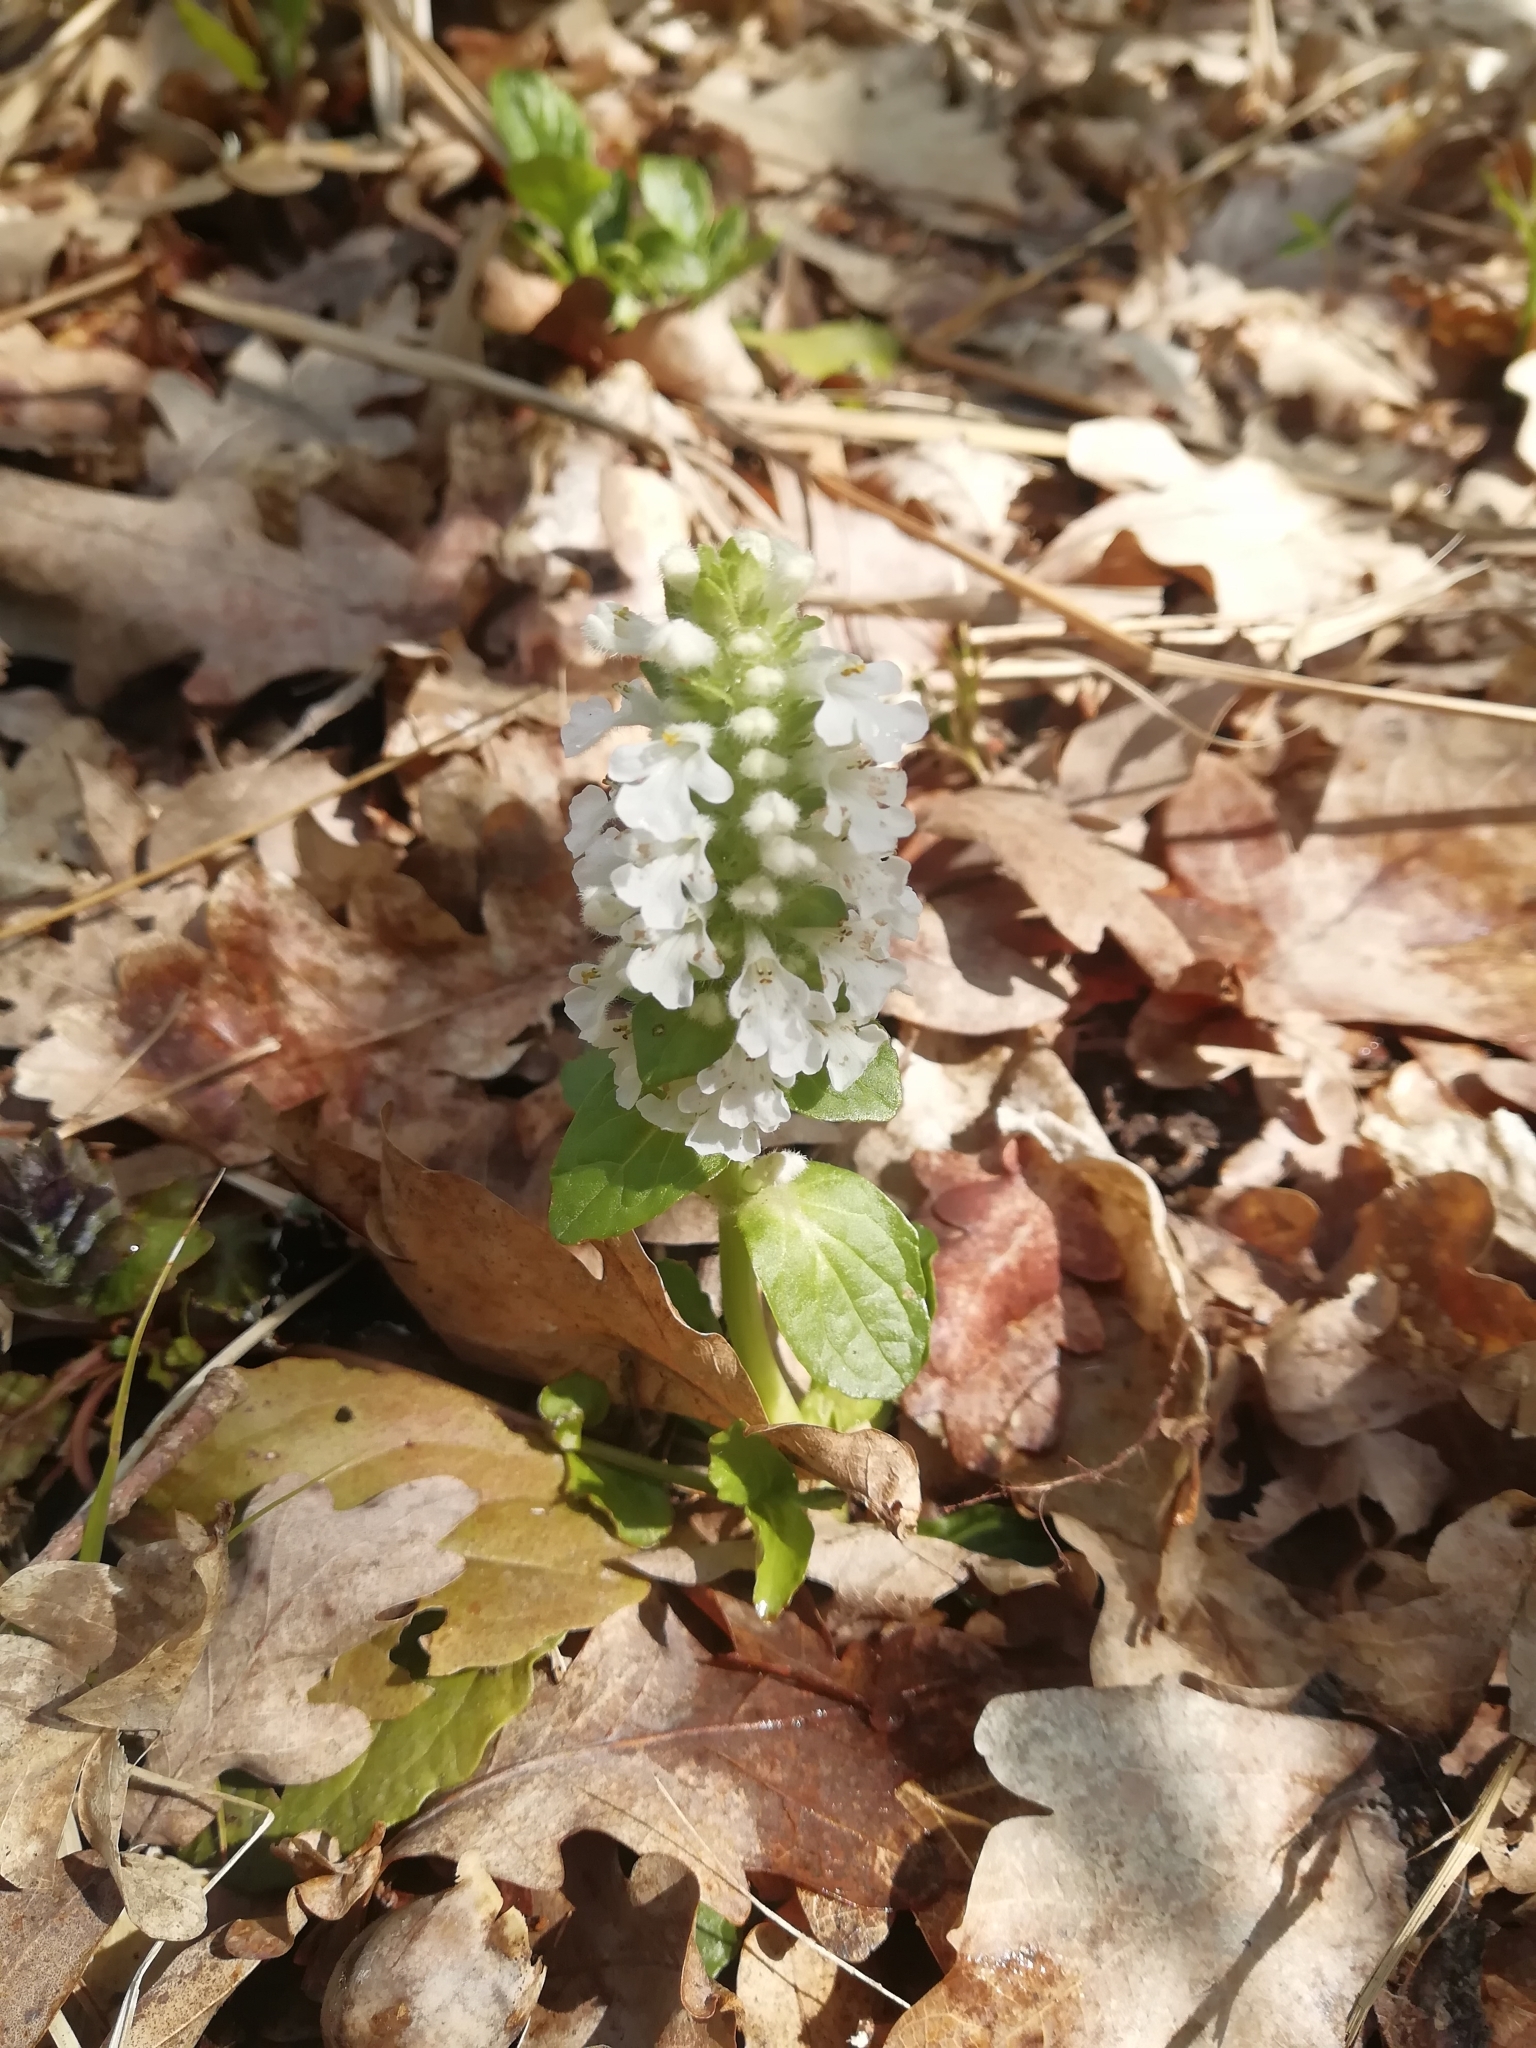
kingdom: Plantae
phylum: Tracheophyta
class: Magnoliopsida
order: Lamiales
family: Lamiaceae
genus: Ajuga
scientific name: Ajuga reptans
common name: Bugle
